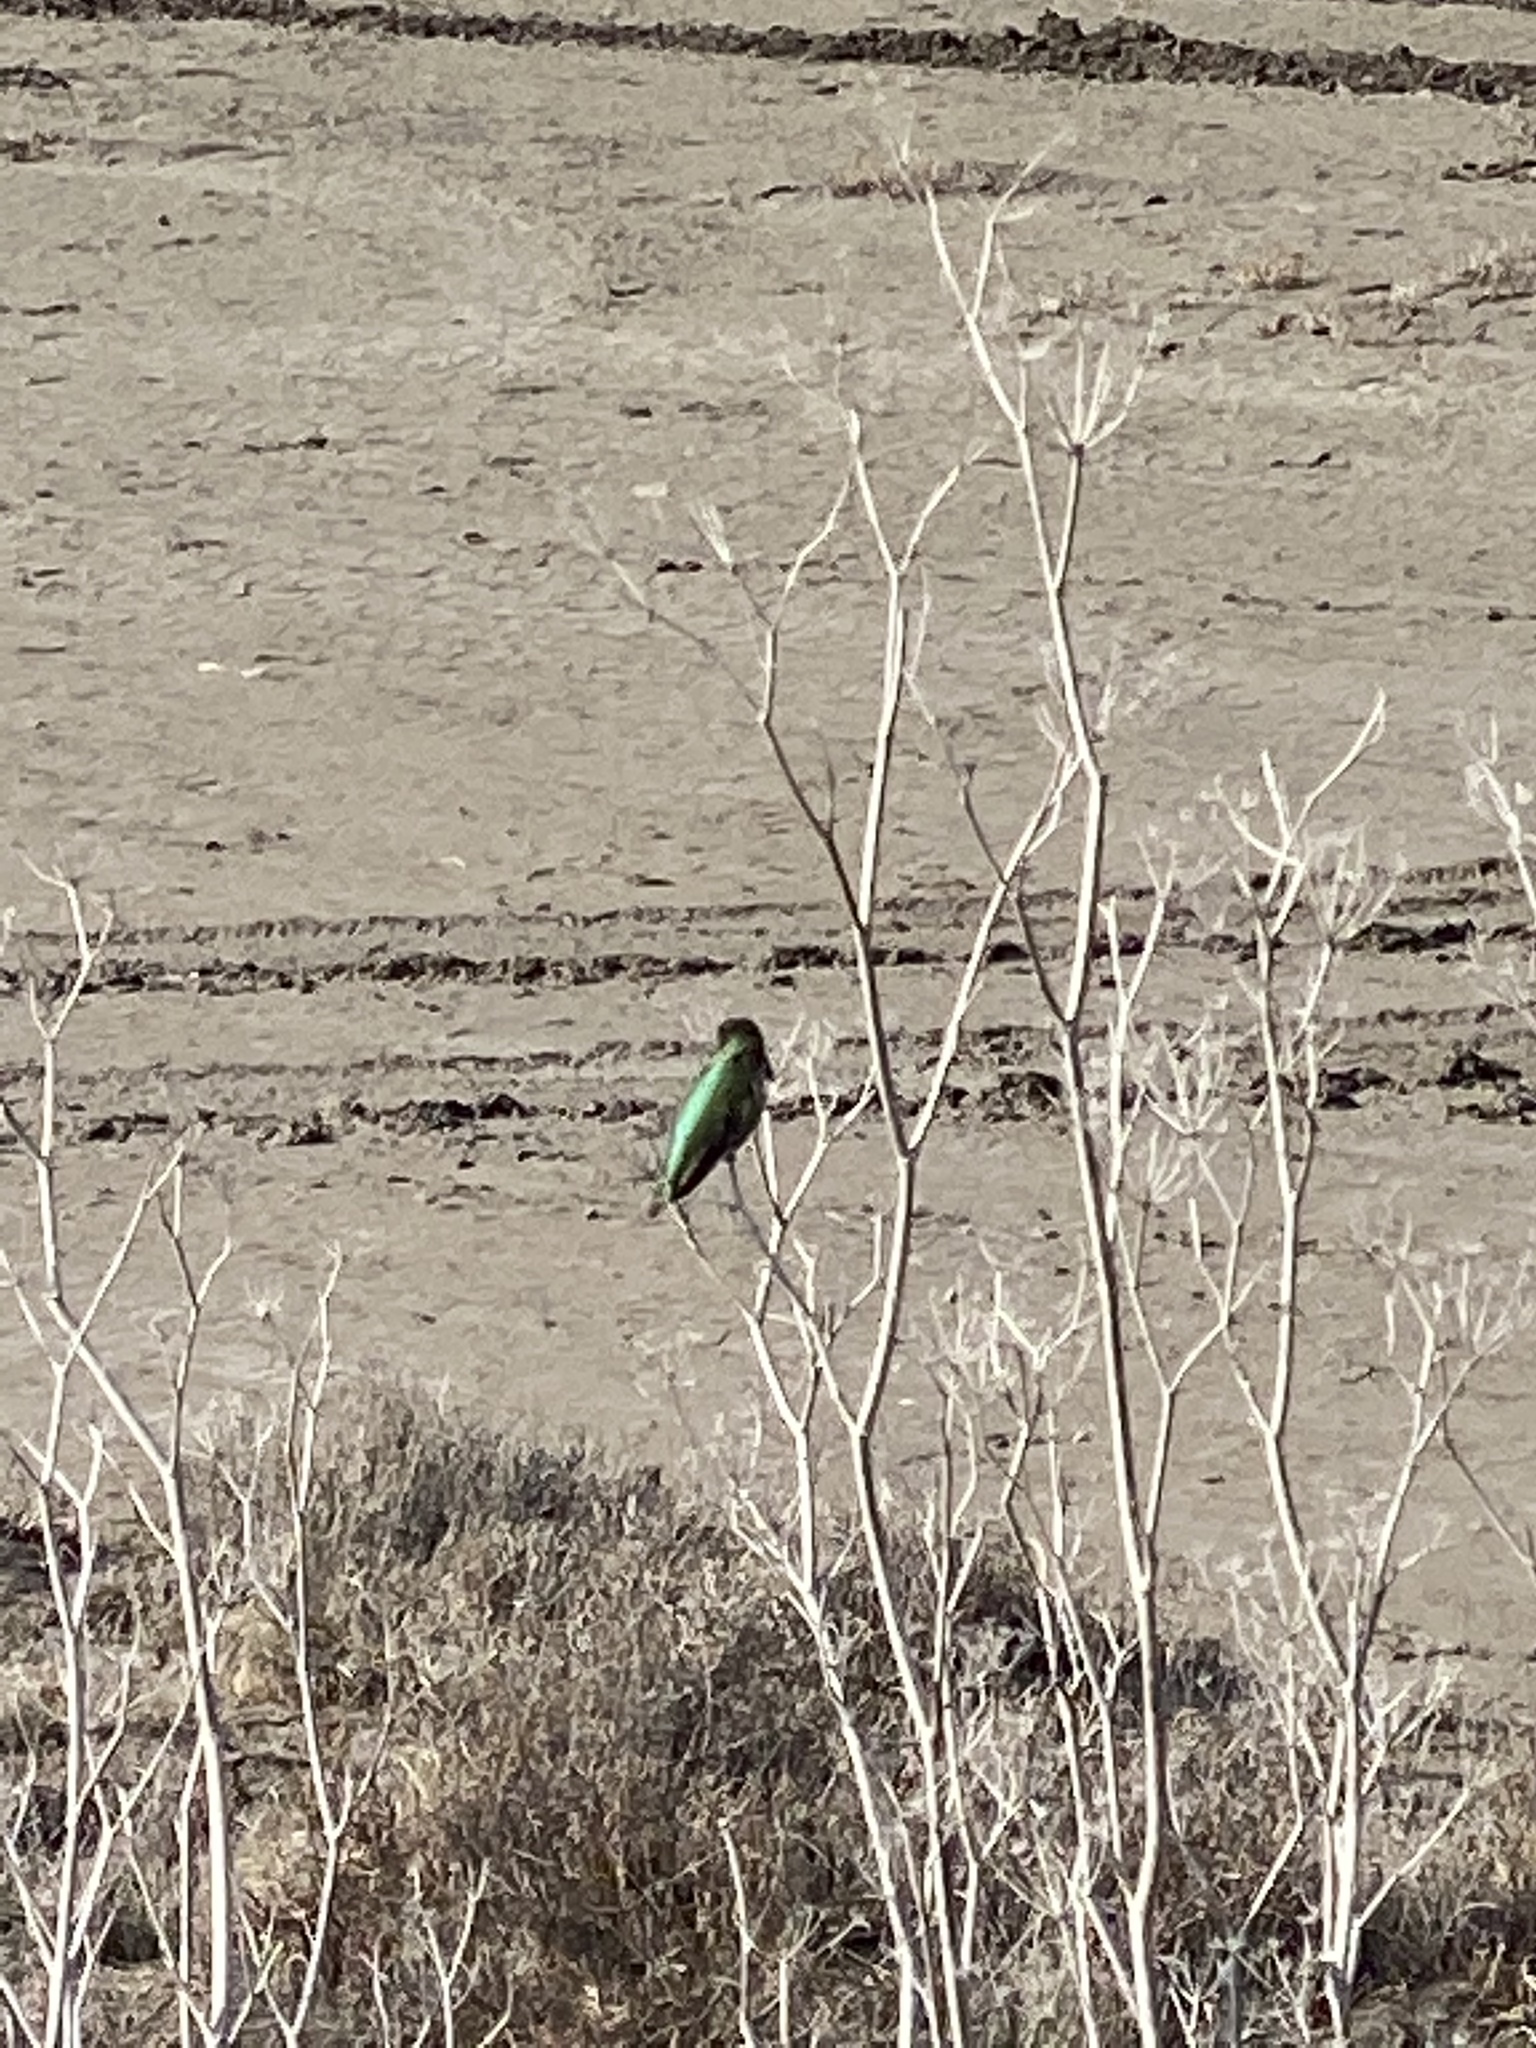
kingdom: Animalia
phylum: Chordata
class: Aves
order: Apodiformes
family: Trochilidae
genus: Calypte
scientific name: Calypte anna
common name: Anna's hummingbird
